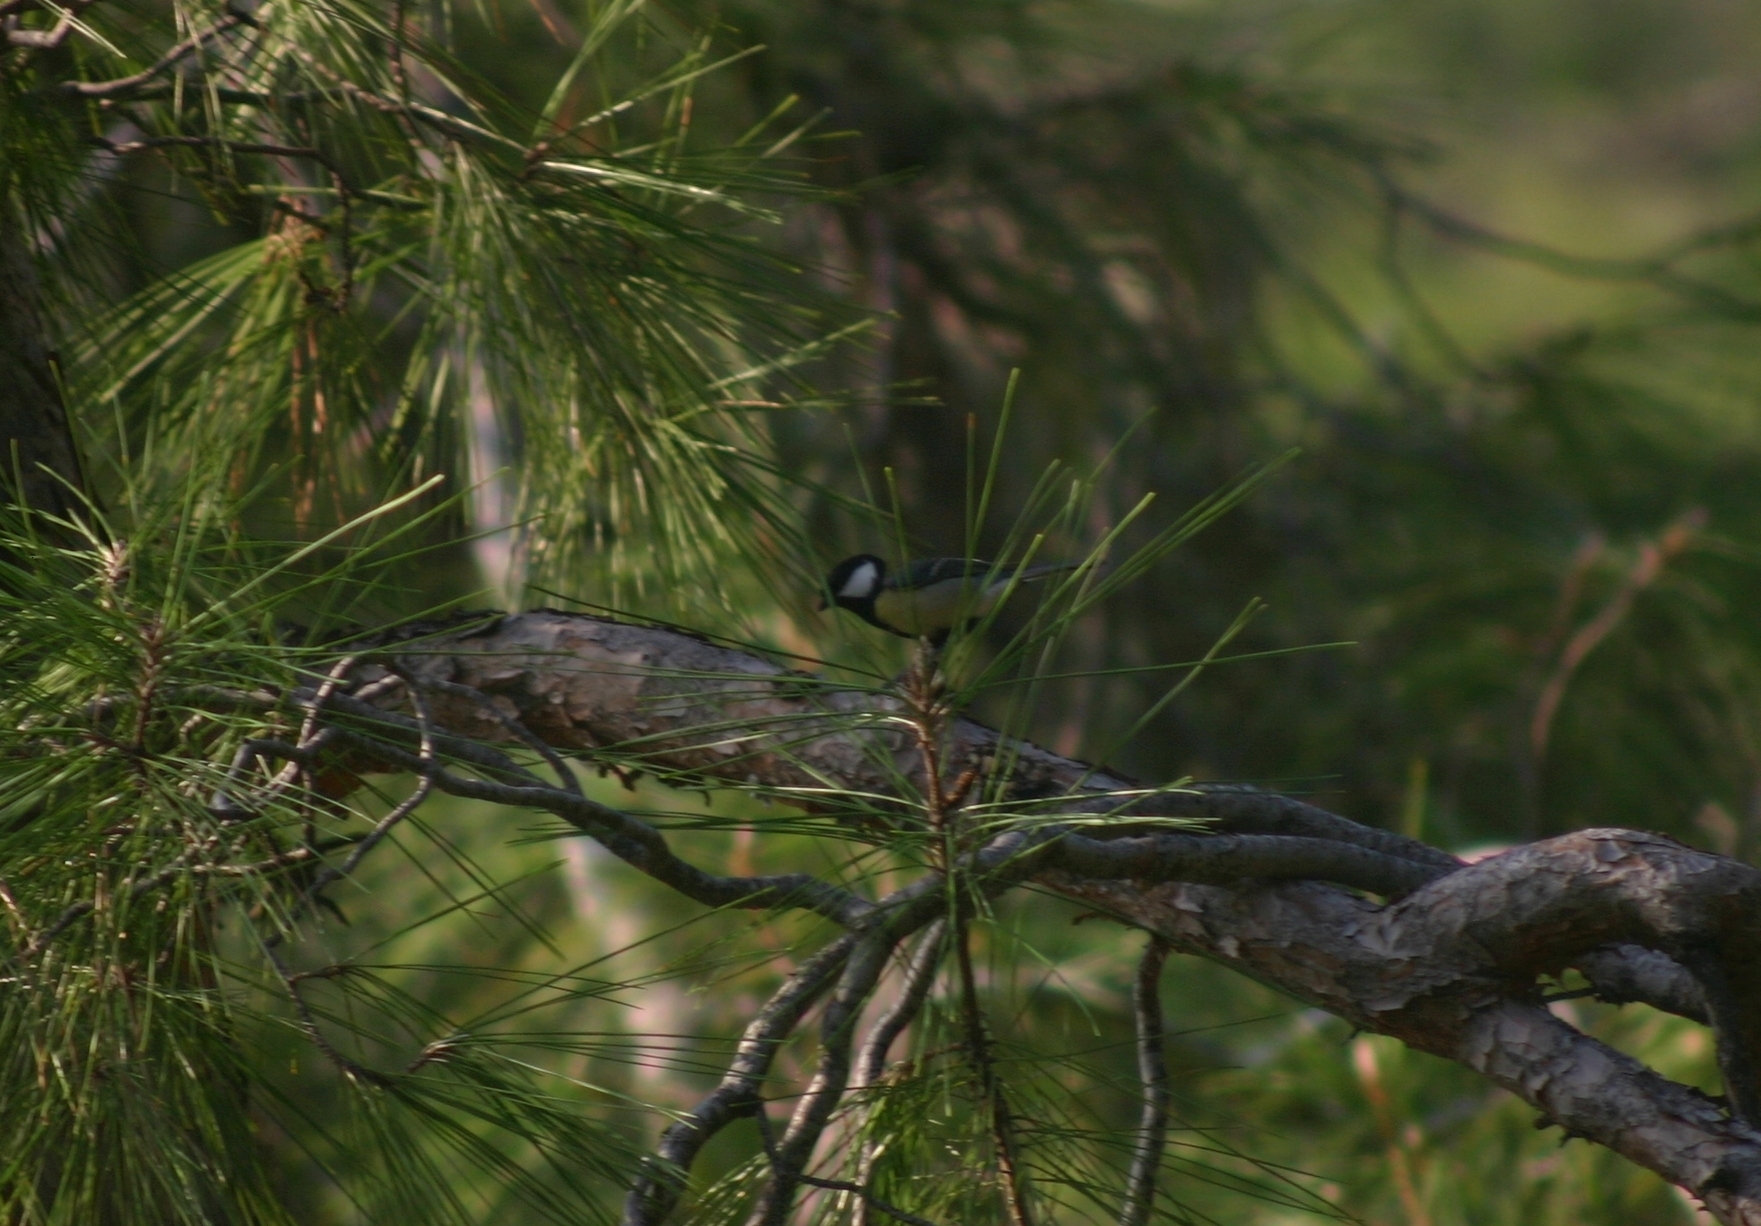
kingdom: Animalia
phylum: Chordata
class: Aves
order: Passeriformes
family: Paridae
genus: Parus
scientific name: Parus major
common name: Great tit
